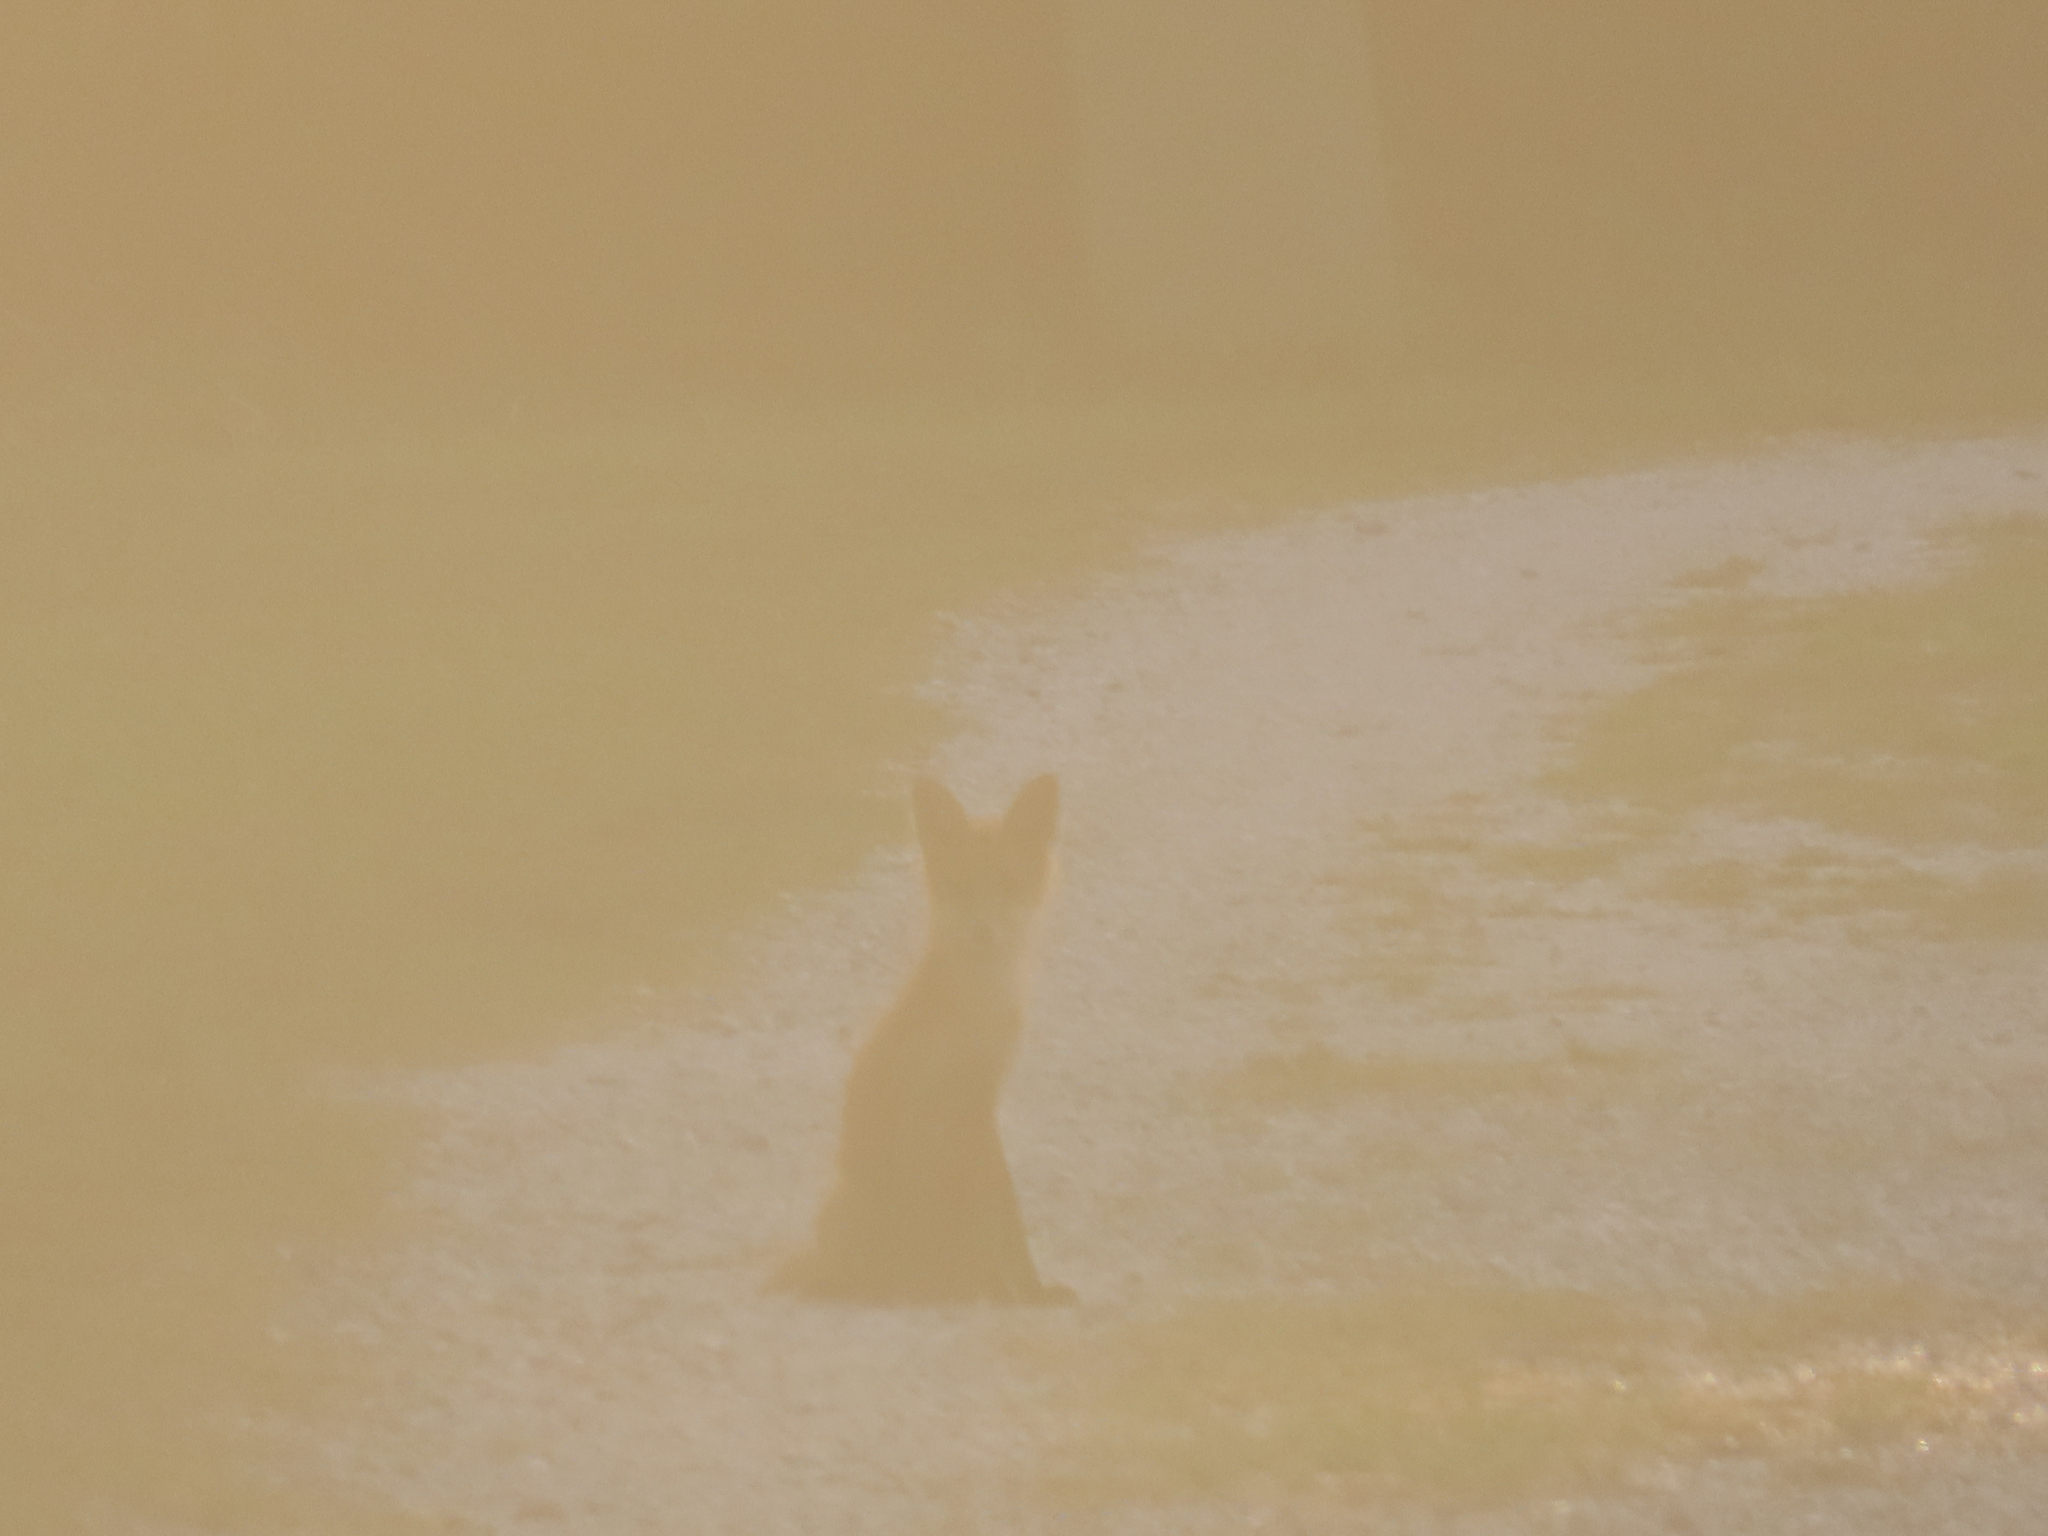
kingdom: Animalia
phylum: Chordata
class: Mammalia
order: Carnivora
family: Canidae
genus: Vulpes
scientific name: Vulpes vulpes
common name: Red fox
